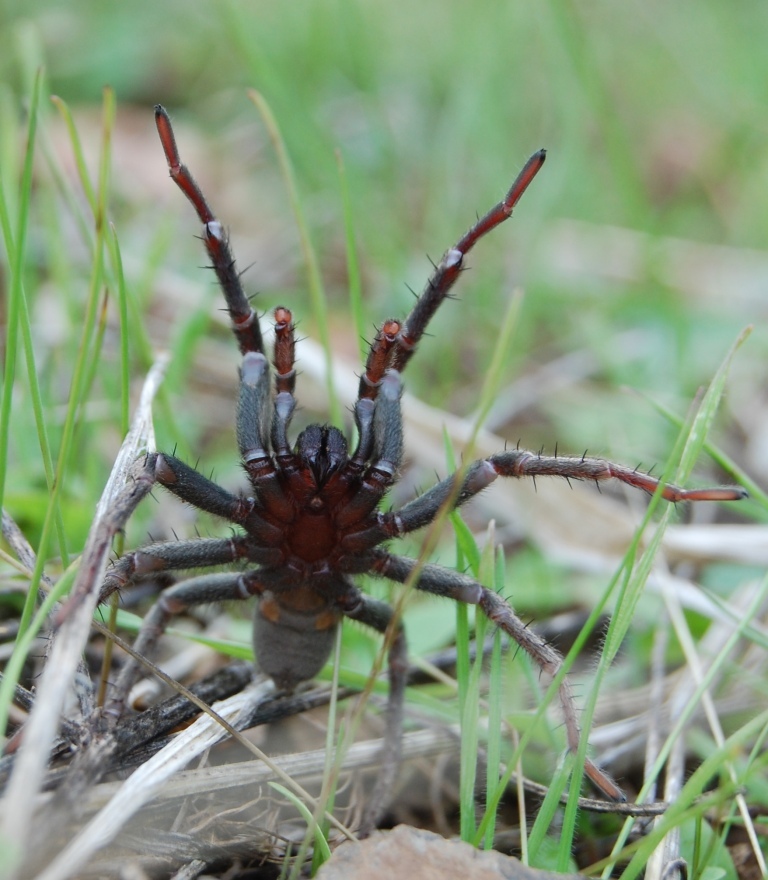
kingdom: Animalia
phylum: Arthropoda
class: Arachnida
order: Araneae
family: Nemesiidae
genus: Calisoga
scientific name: Calisoga longitarsis
